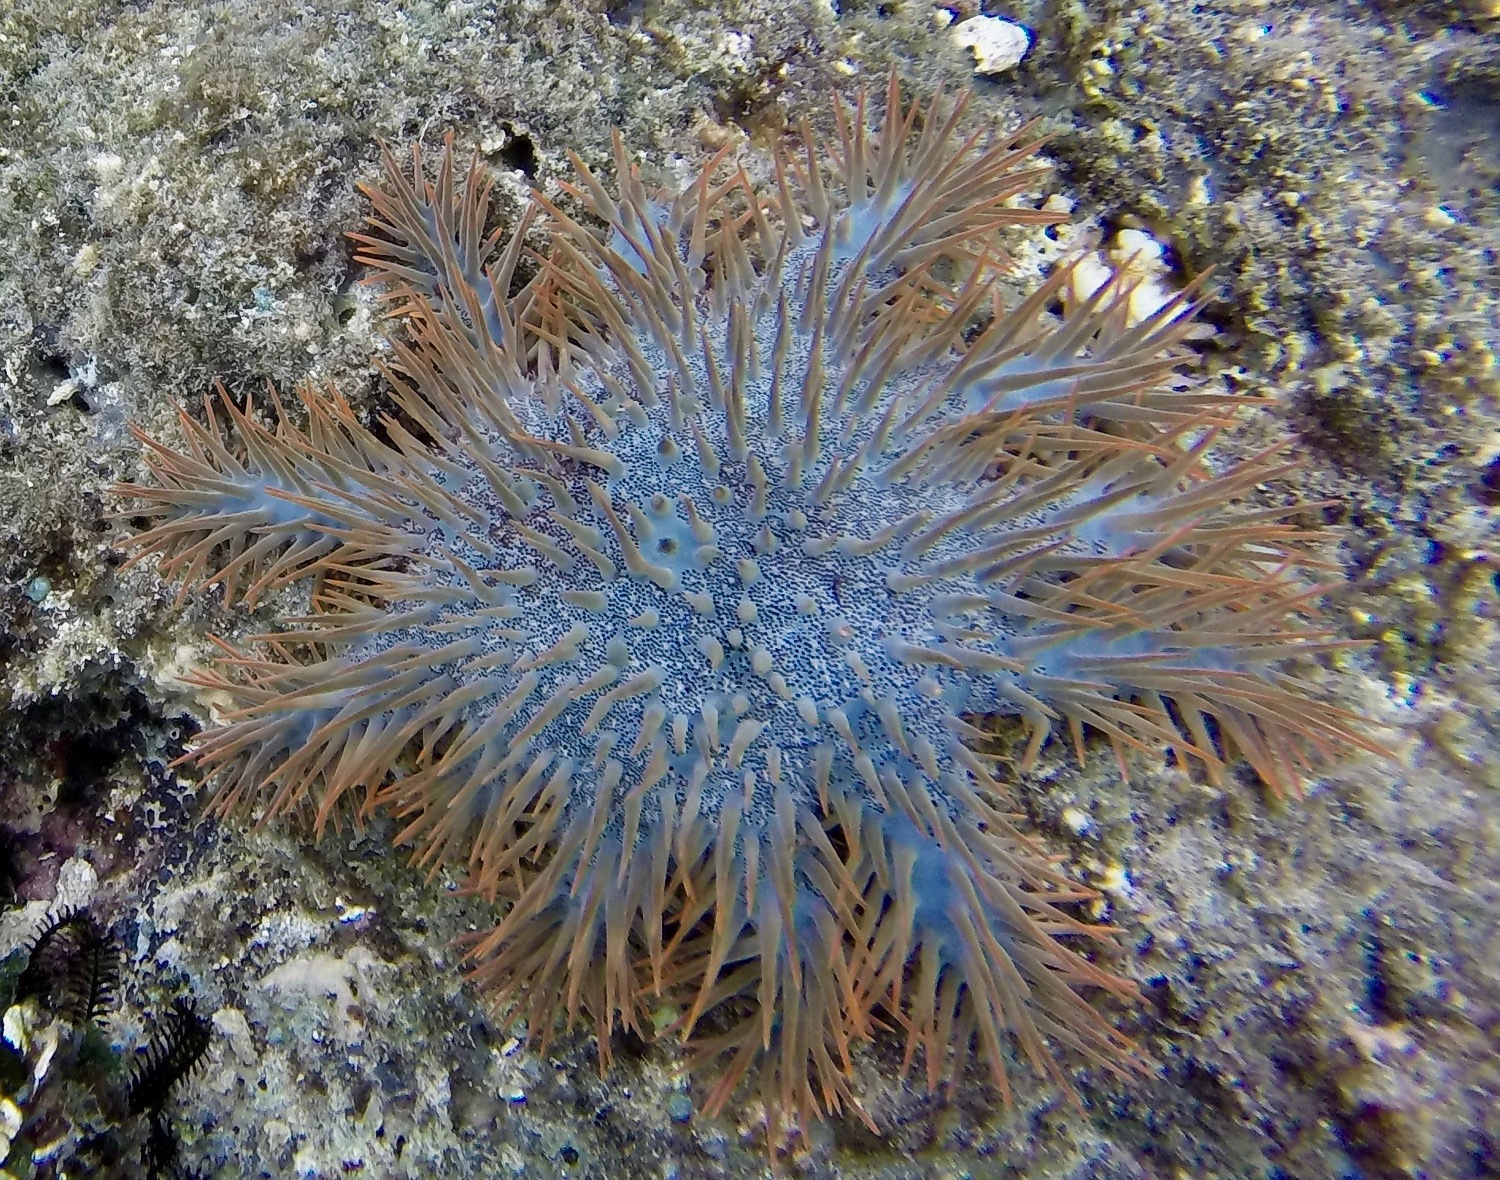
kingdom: Animalia
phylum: Echinodermata
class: Asteroidea
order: Valvatida
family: Acanthasteridae
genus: Acanthaster
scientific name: Acanthaster planci
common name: Crown-of-thorns
